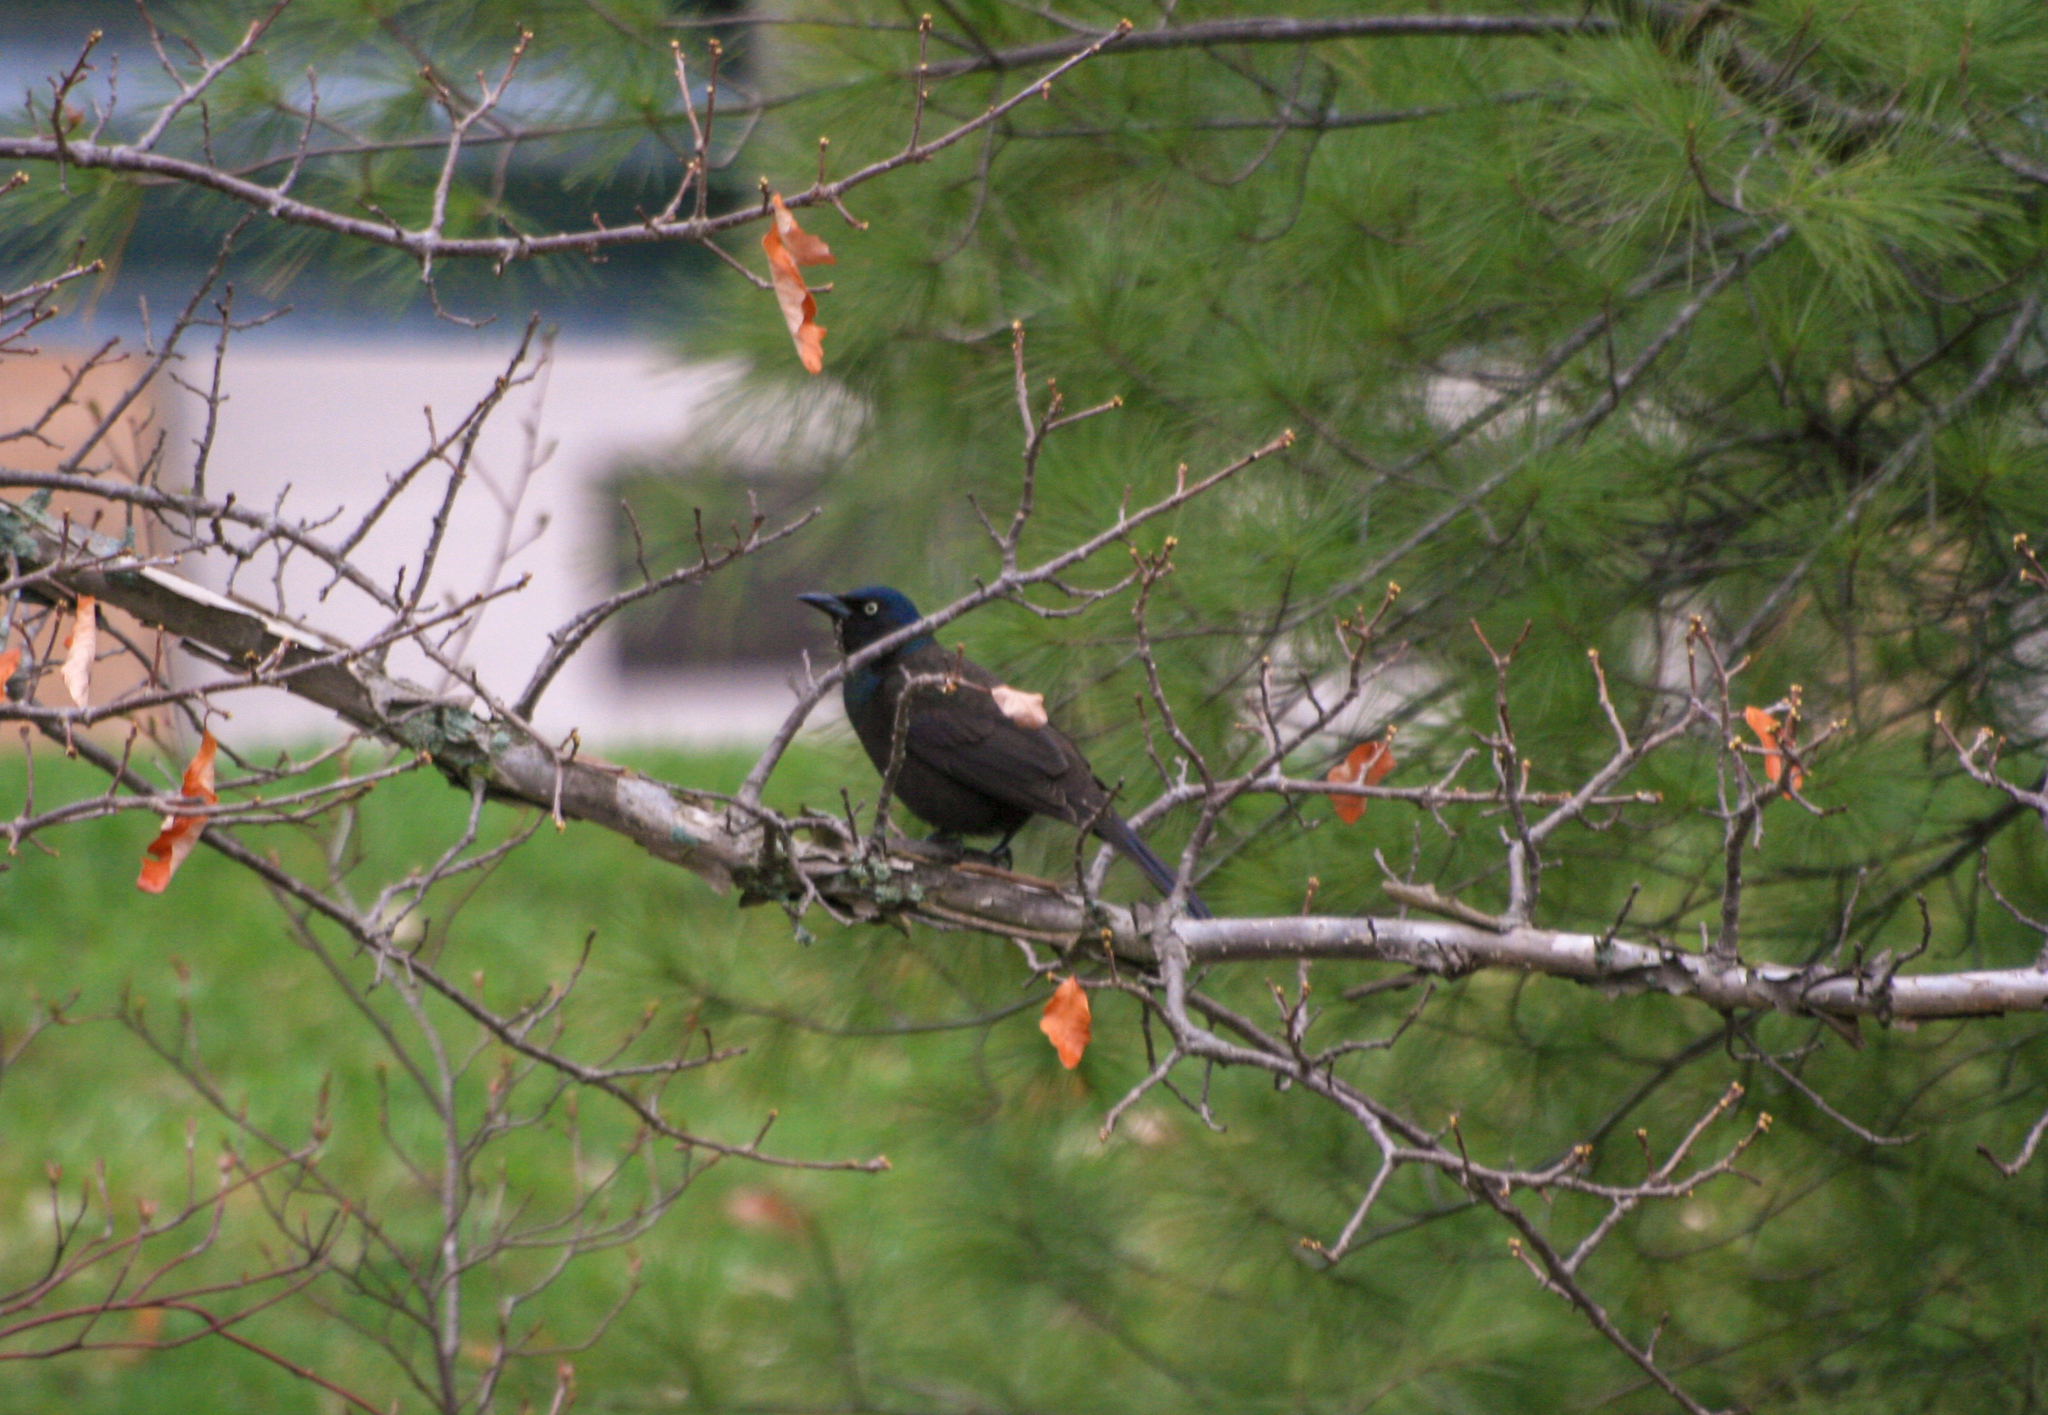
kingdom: Animalia
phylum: Chordata
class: Aves
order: Passeriformes
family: Icteridae
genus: Quiscalus
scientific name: Quiscalus quiscula
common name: Common grackle
